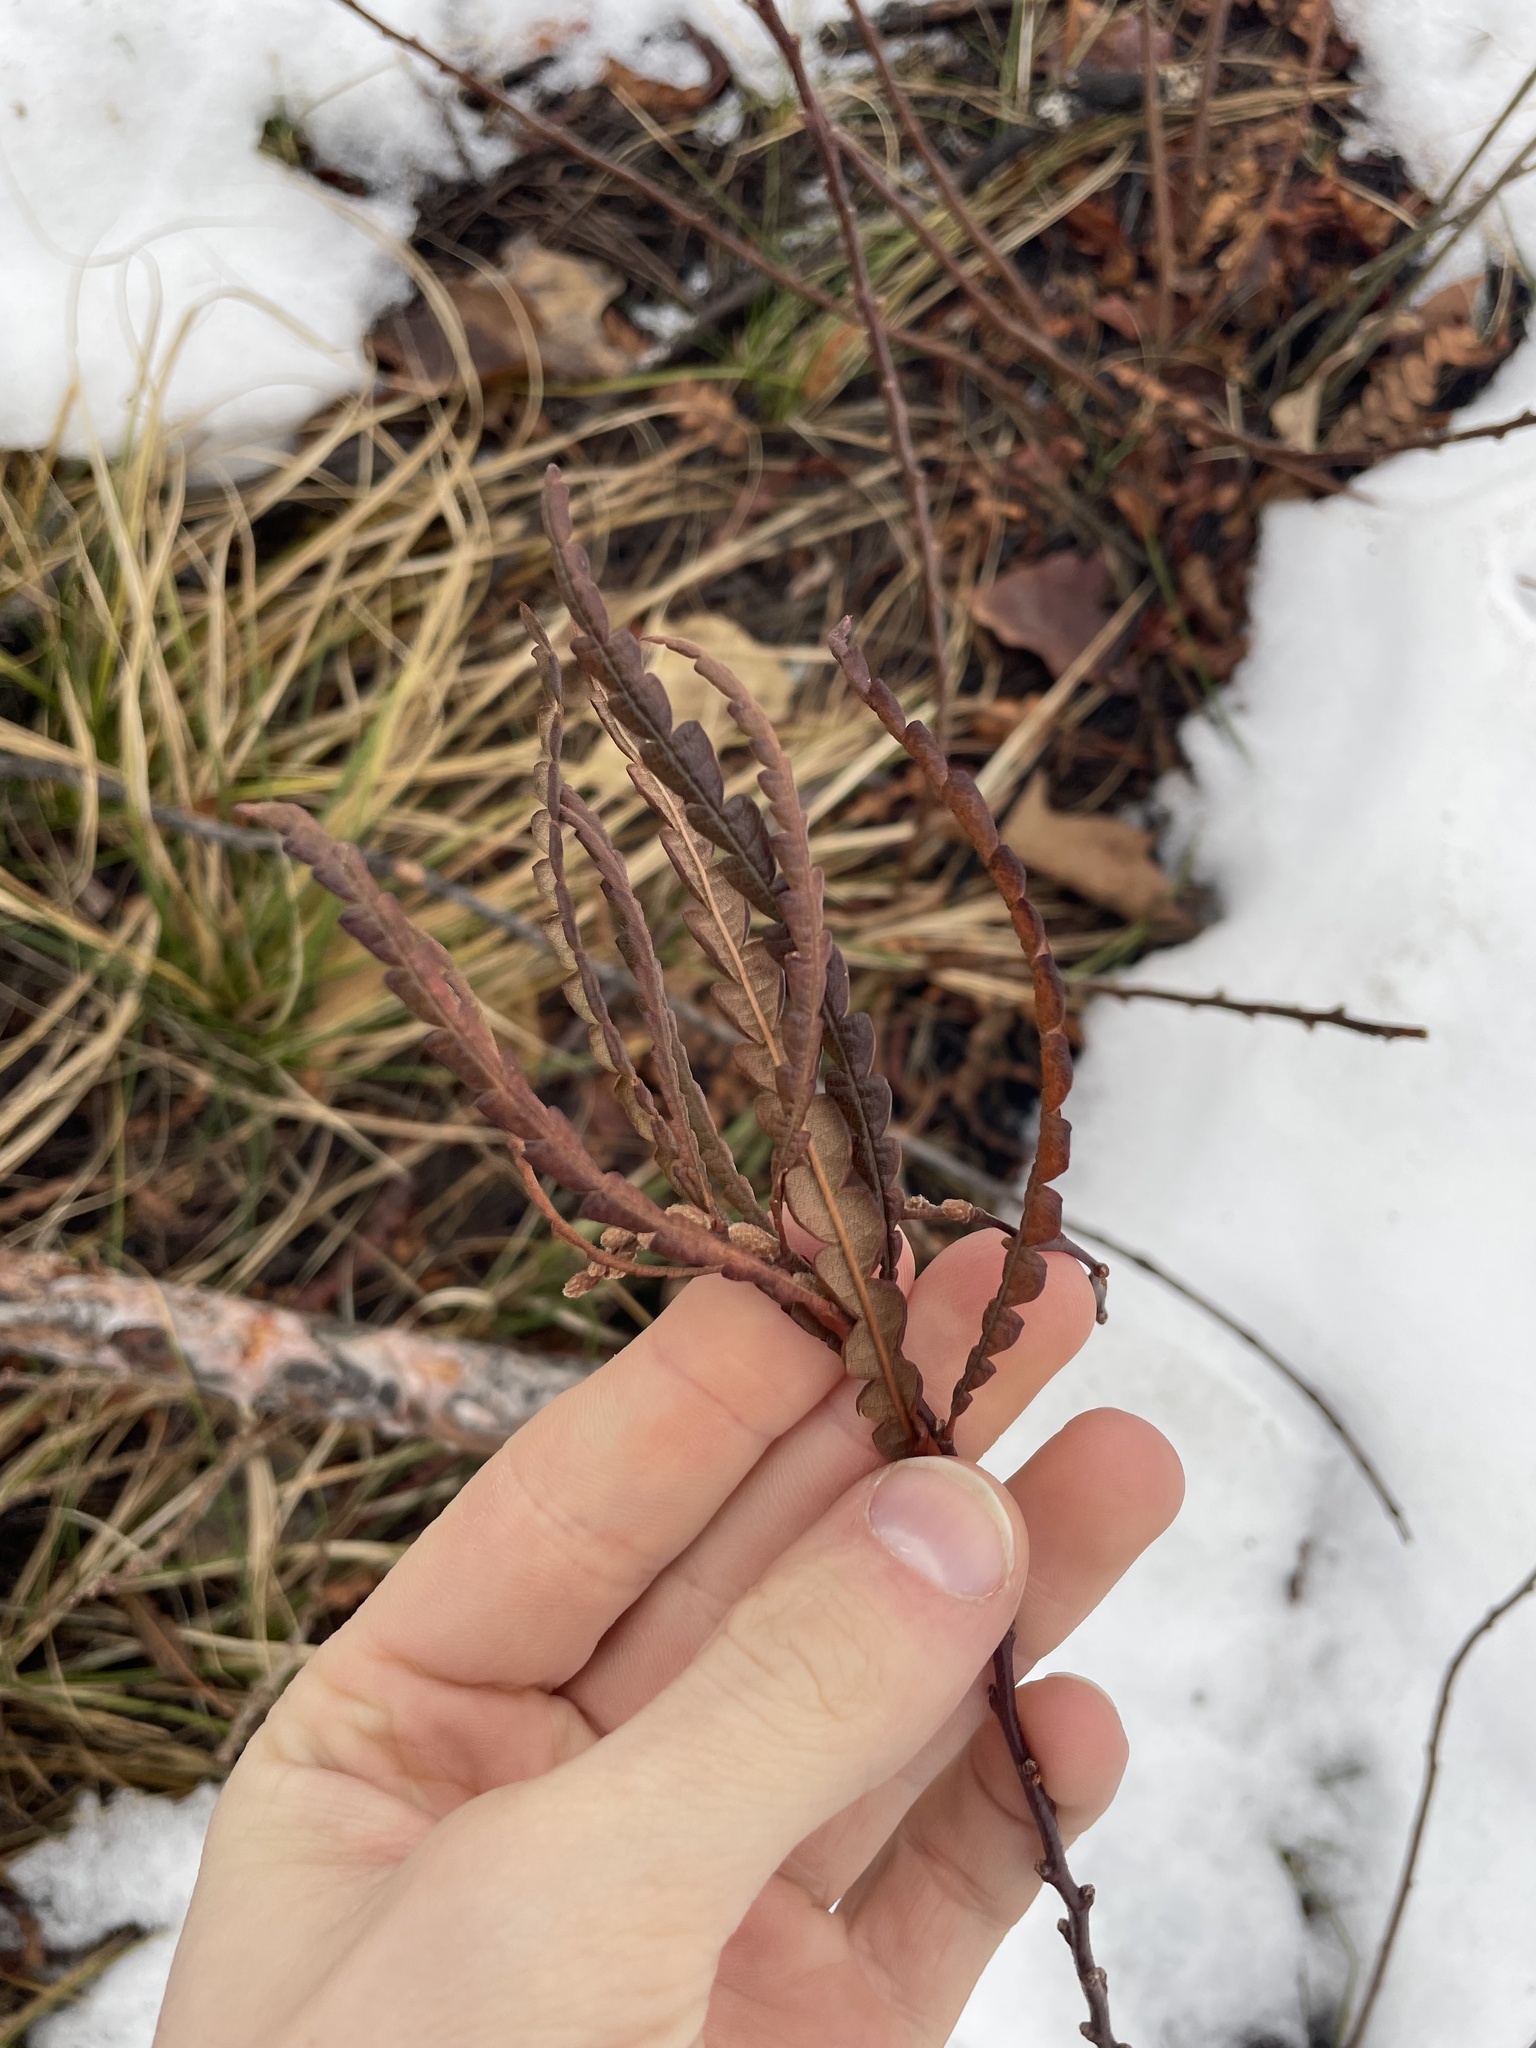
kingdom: Plantae
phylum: Tracheophyta
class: Magnoliopsida
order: Fagales
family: Myricaceae
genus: Comptonia
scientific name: Comptonia peregrina
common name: Sweet-fern
